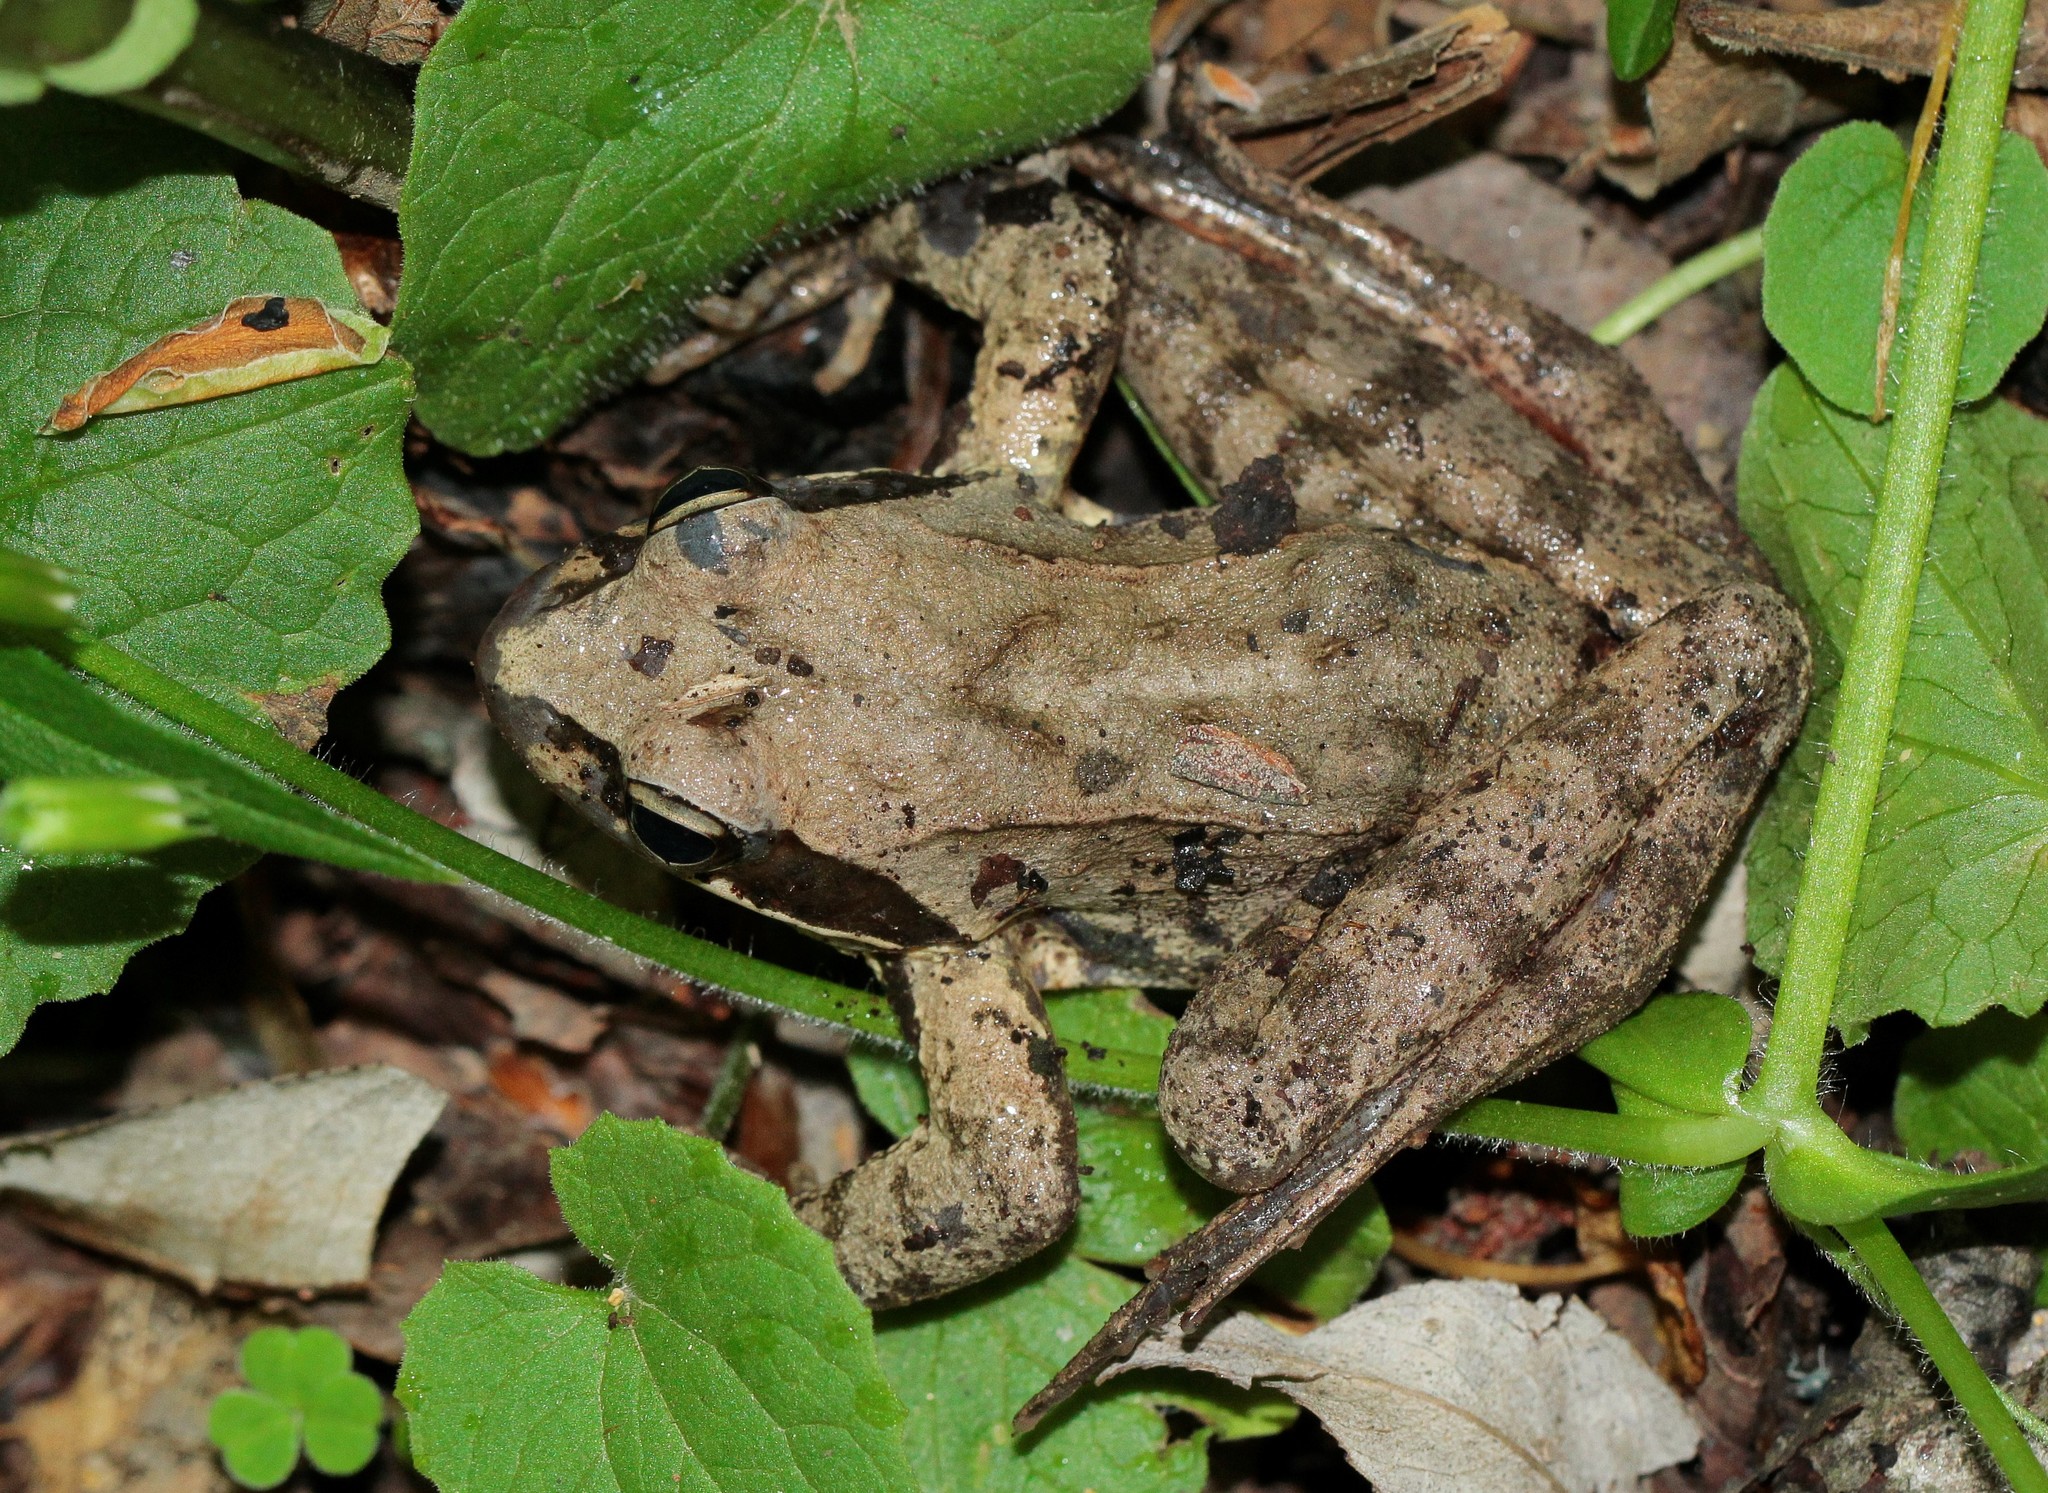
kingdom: Animalia
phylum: Chordata
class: Amphibia
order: Anura
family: Ranidae
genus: Rana
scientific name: Rana macrocnemis
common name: Banded frog
